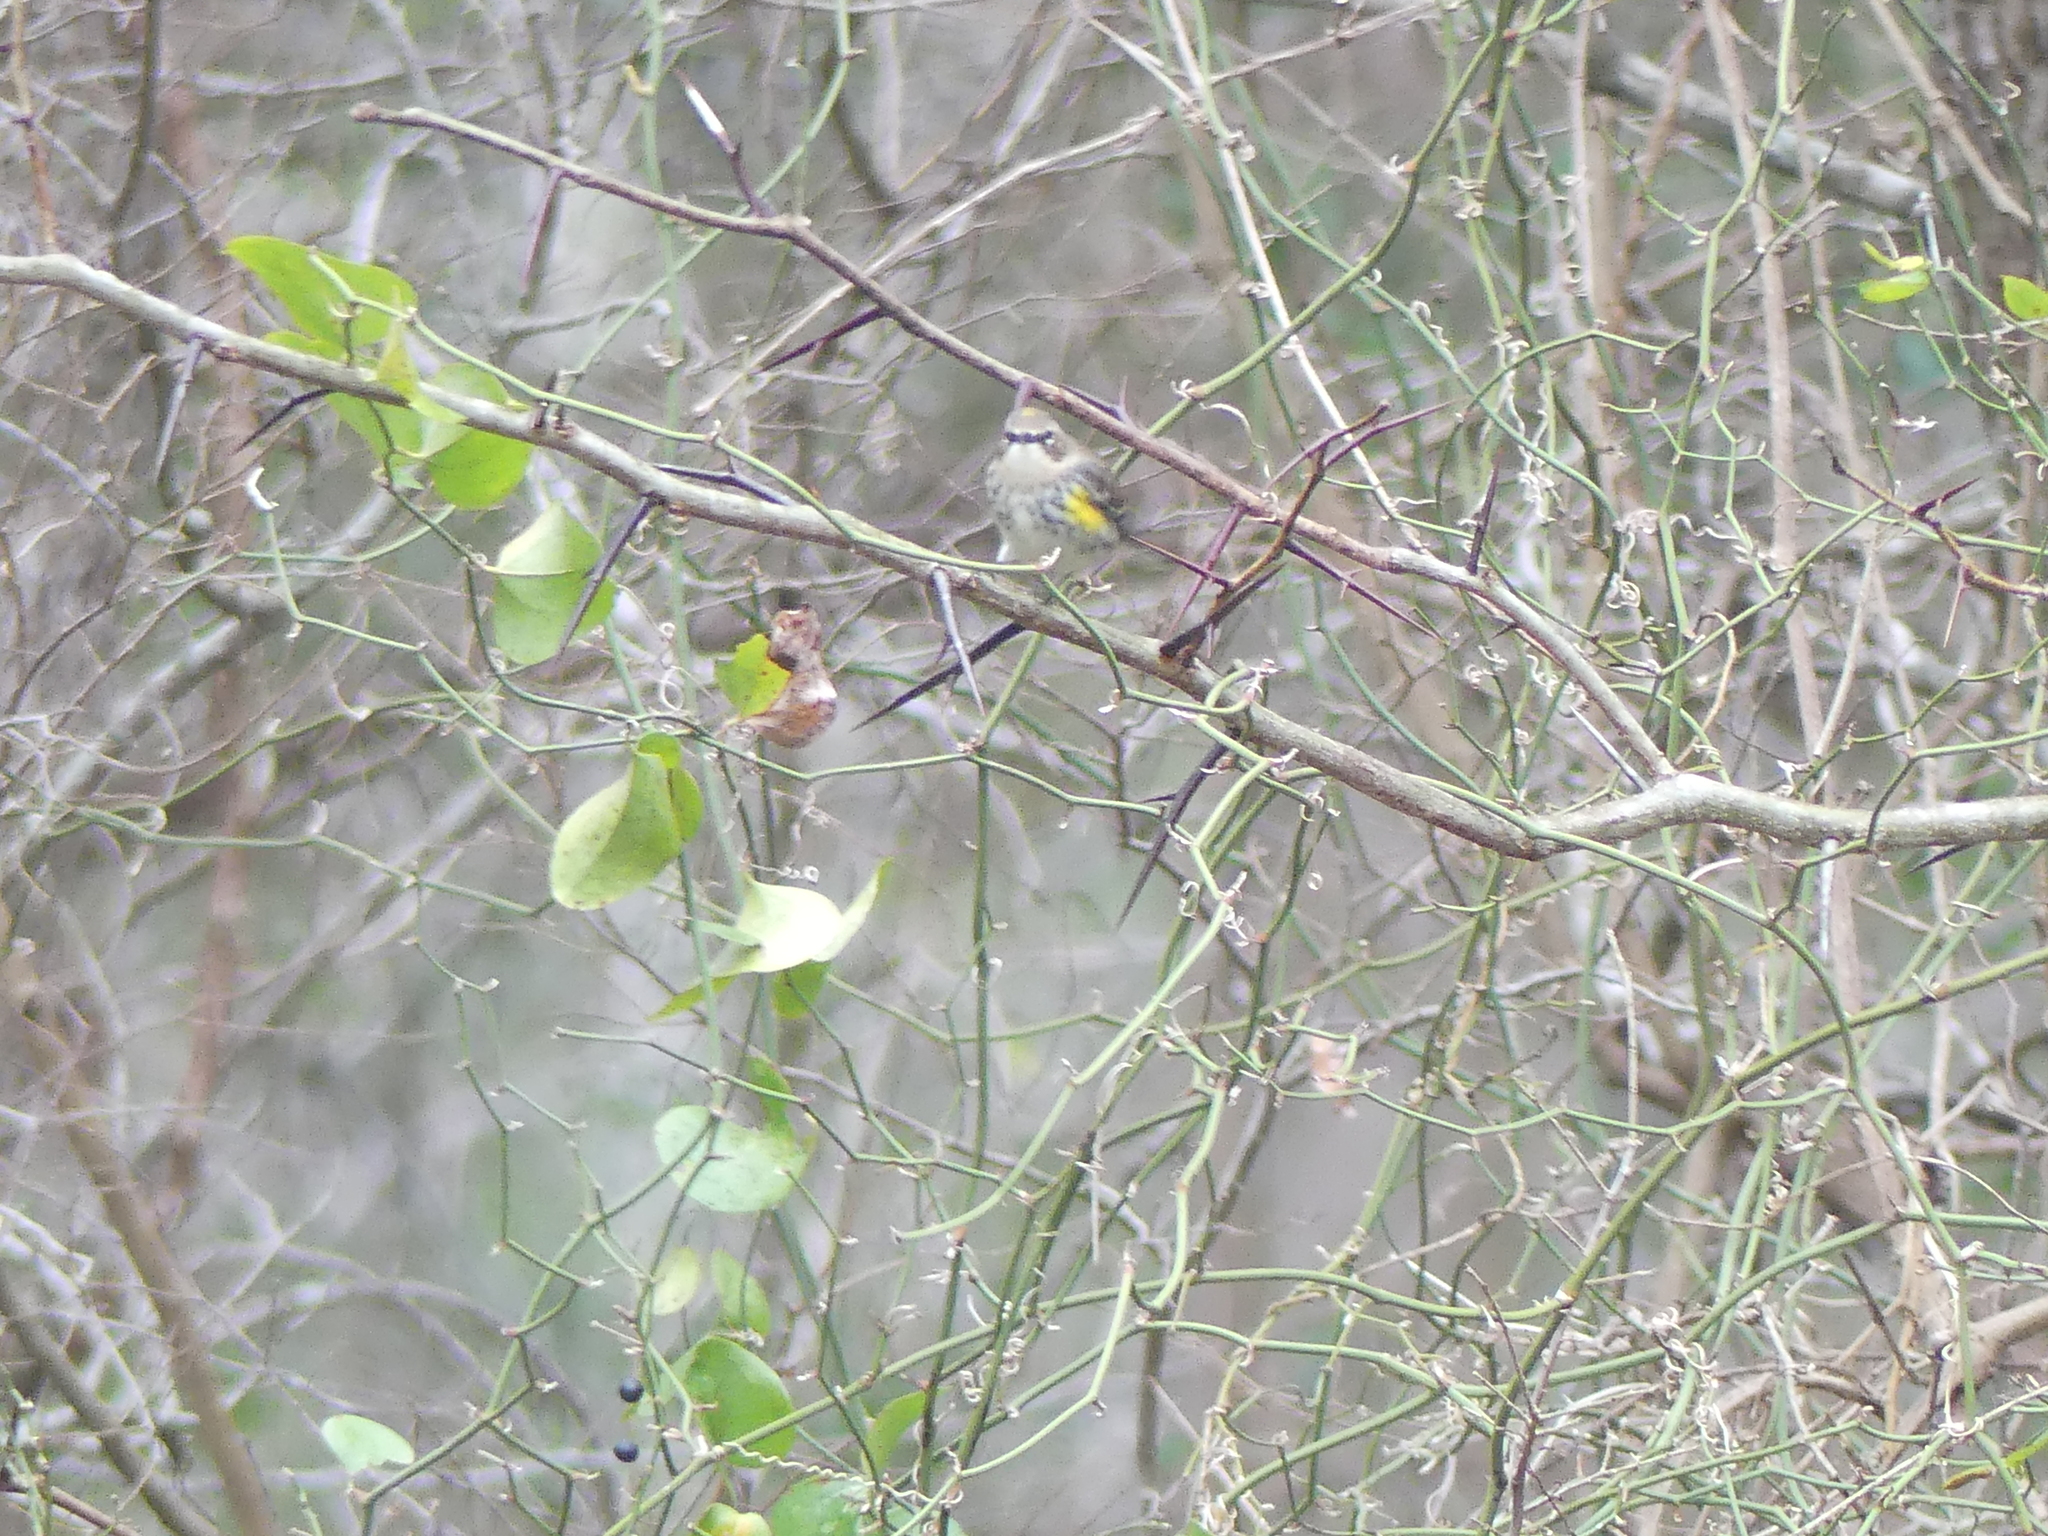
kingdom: Animalia
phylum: Chordata
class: Aves
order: Passeriformes
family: Parulidae
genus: Setophaga
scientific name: Setophaga coronata
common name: Myrtle warbler
